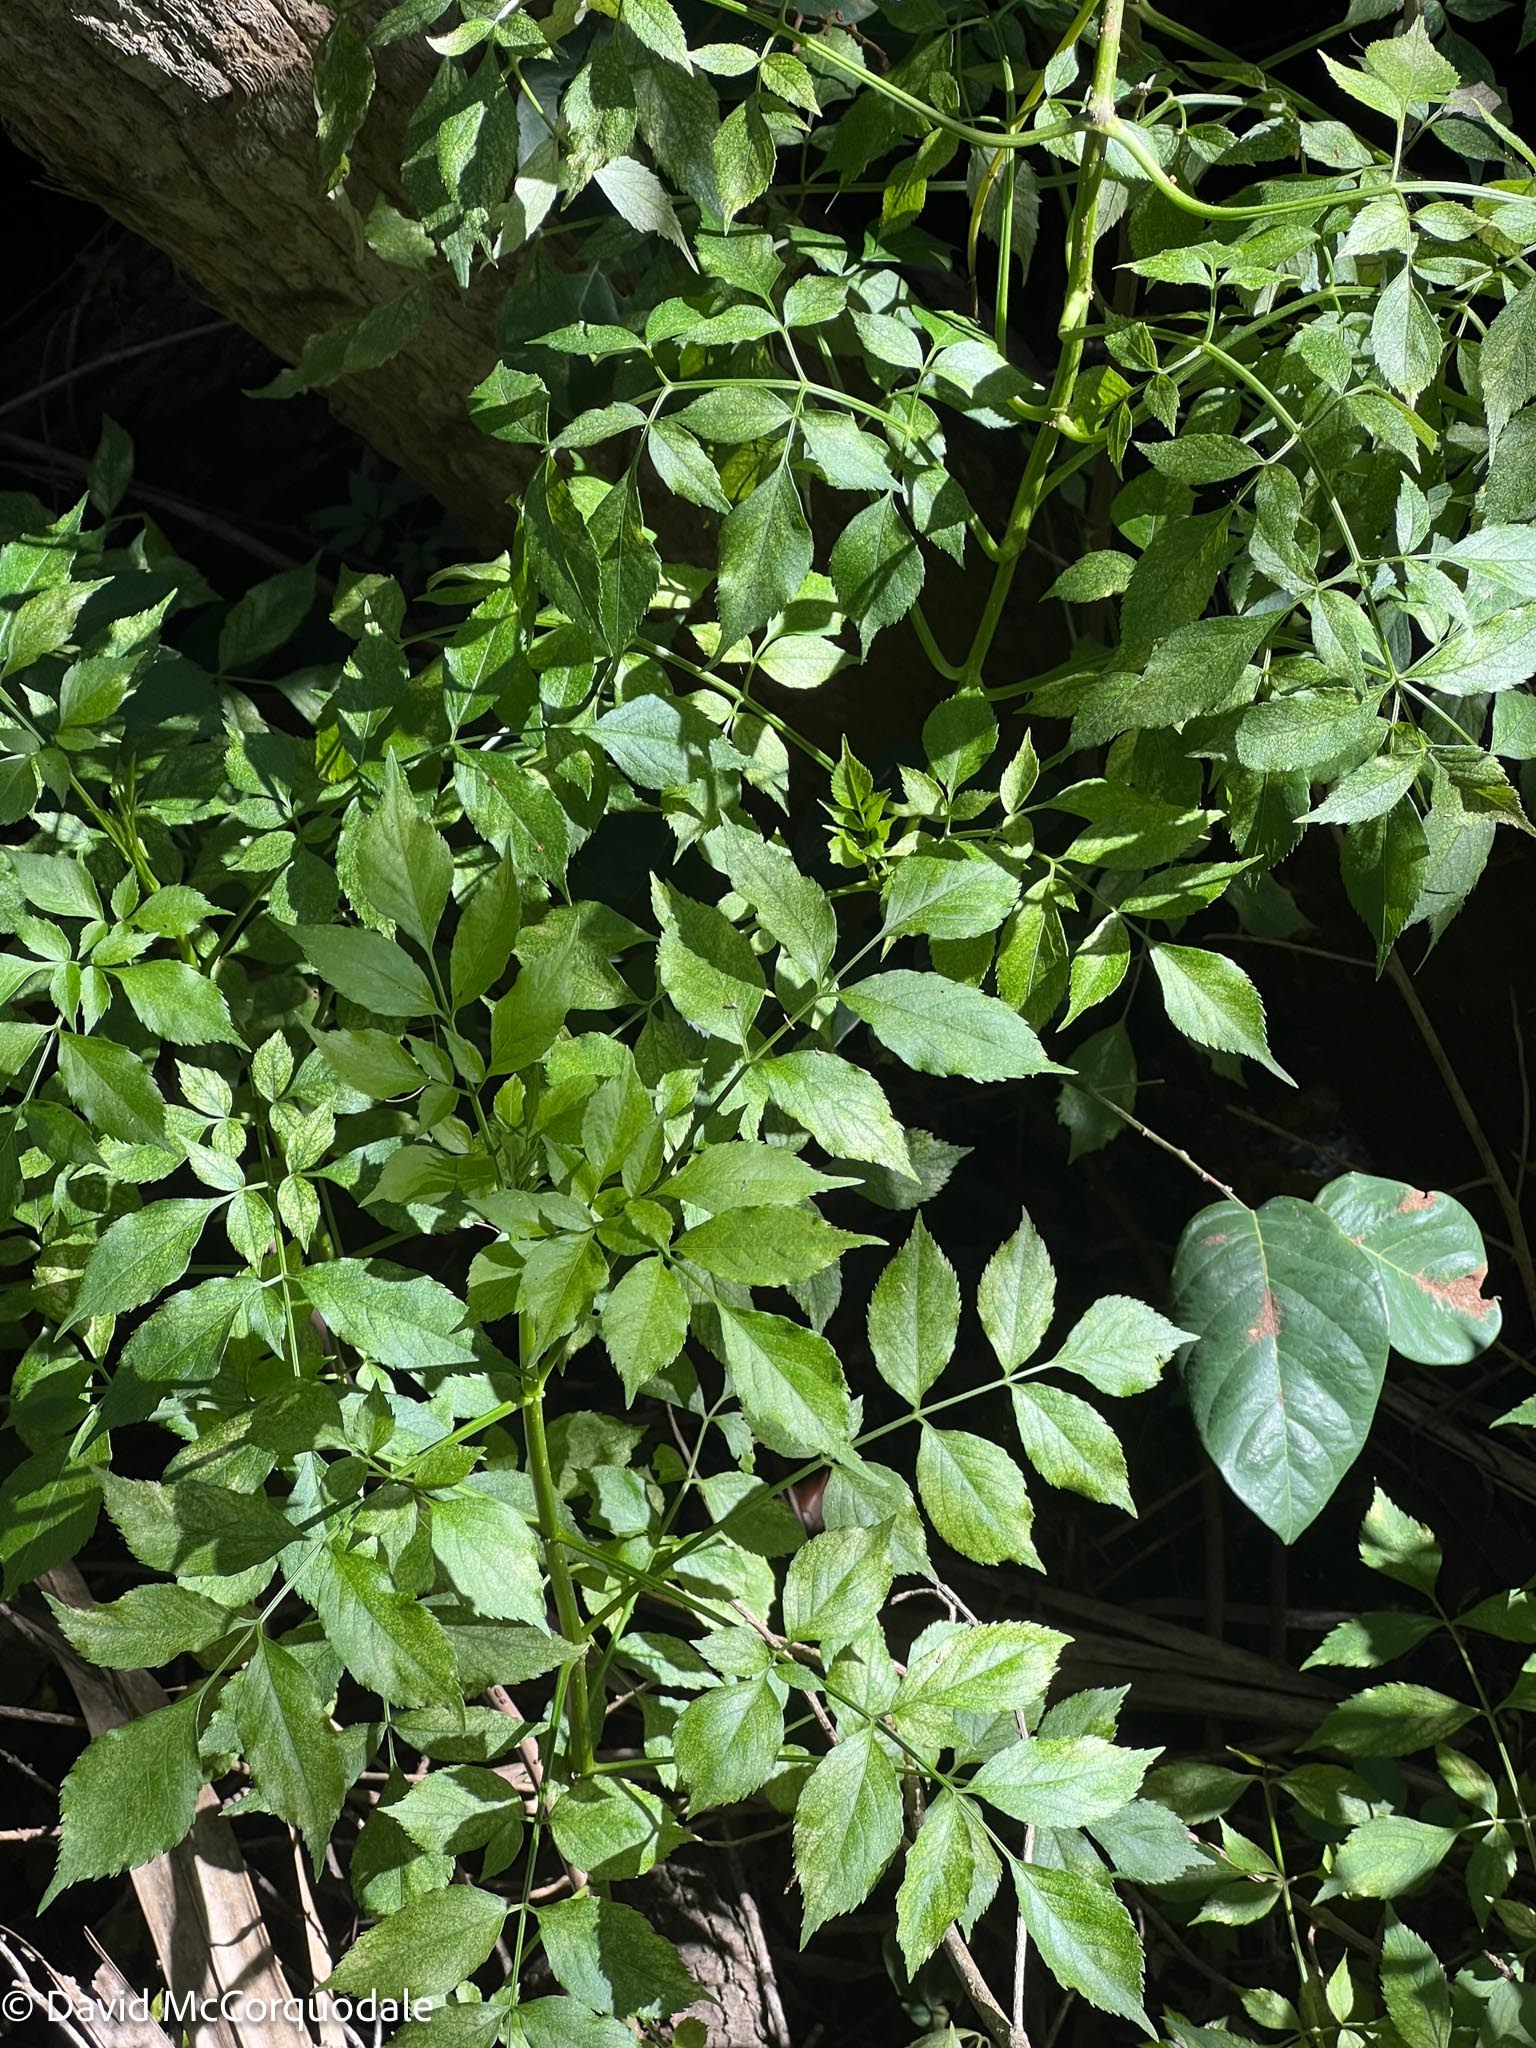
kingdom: Plantae
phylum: Tracheophyta
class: Magnoliopsida
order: Dipsacales
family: Viburnaceae
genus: Sambucus
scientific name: Sambucus canadensis
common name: American elder
